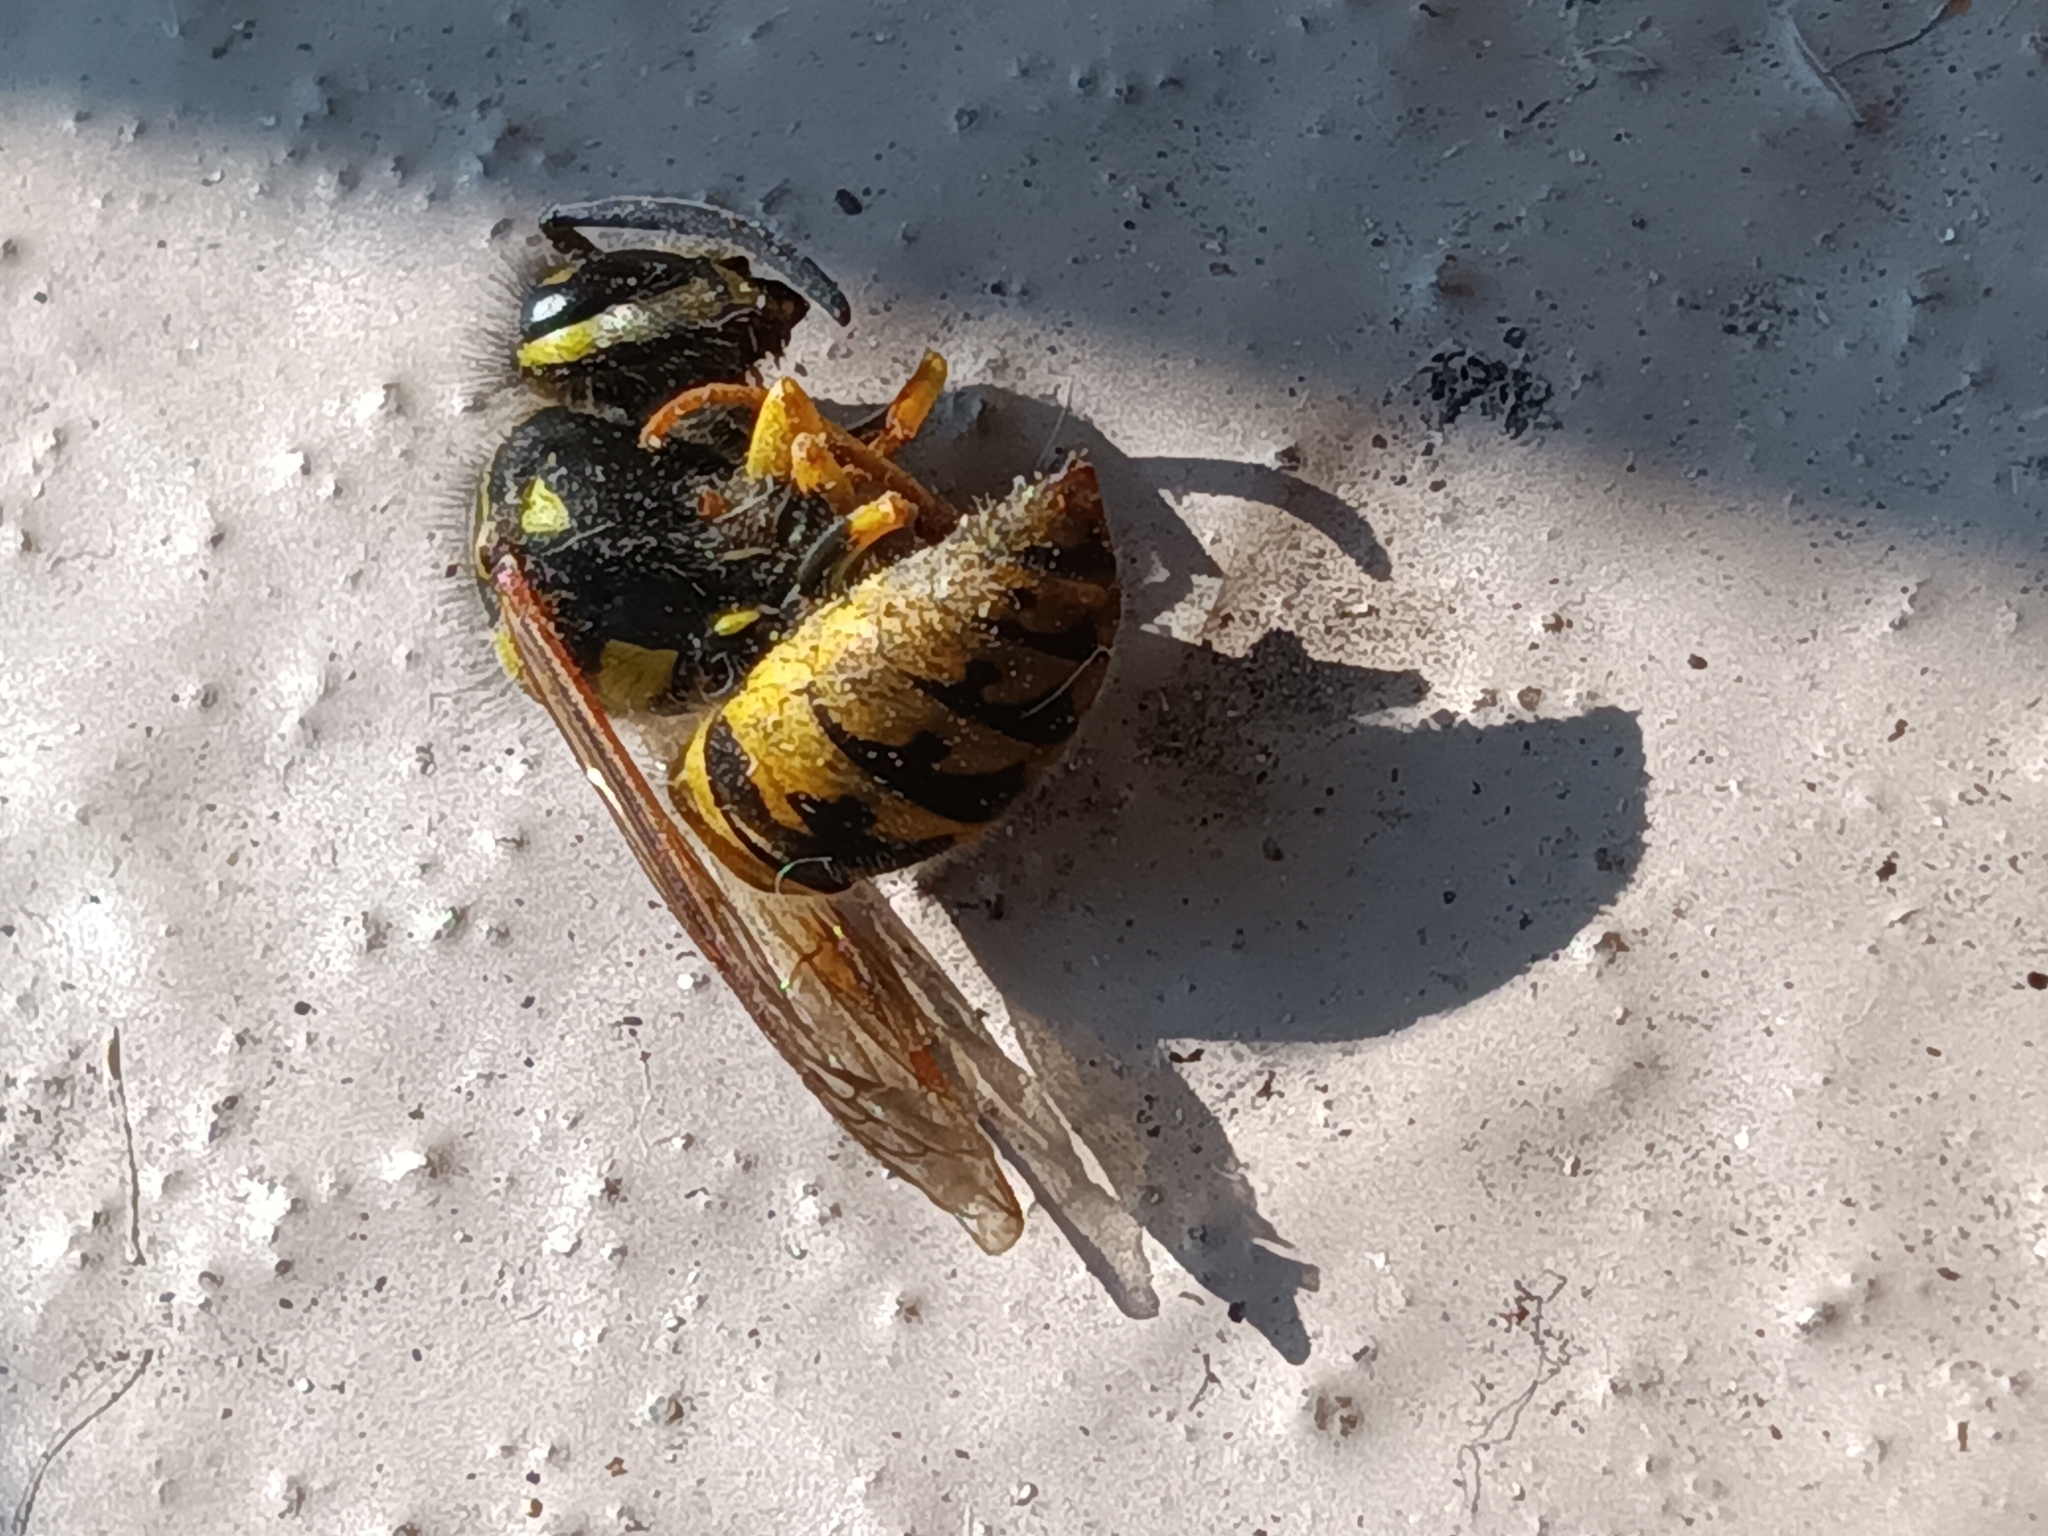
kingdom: Animalia
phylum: Arthropoda
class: Insecta
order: Hymenoptera
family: Vespidae
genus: Vespula
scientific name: Vespula germanica
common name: German wasp
